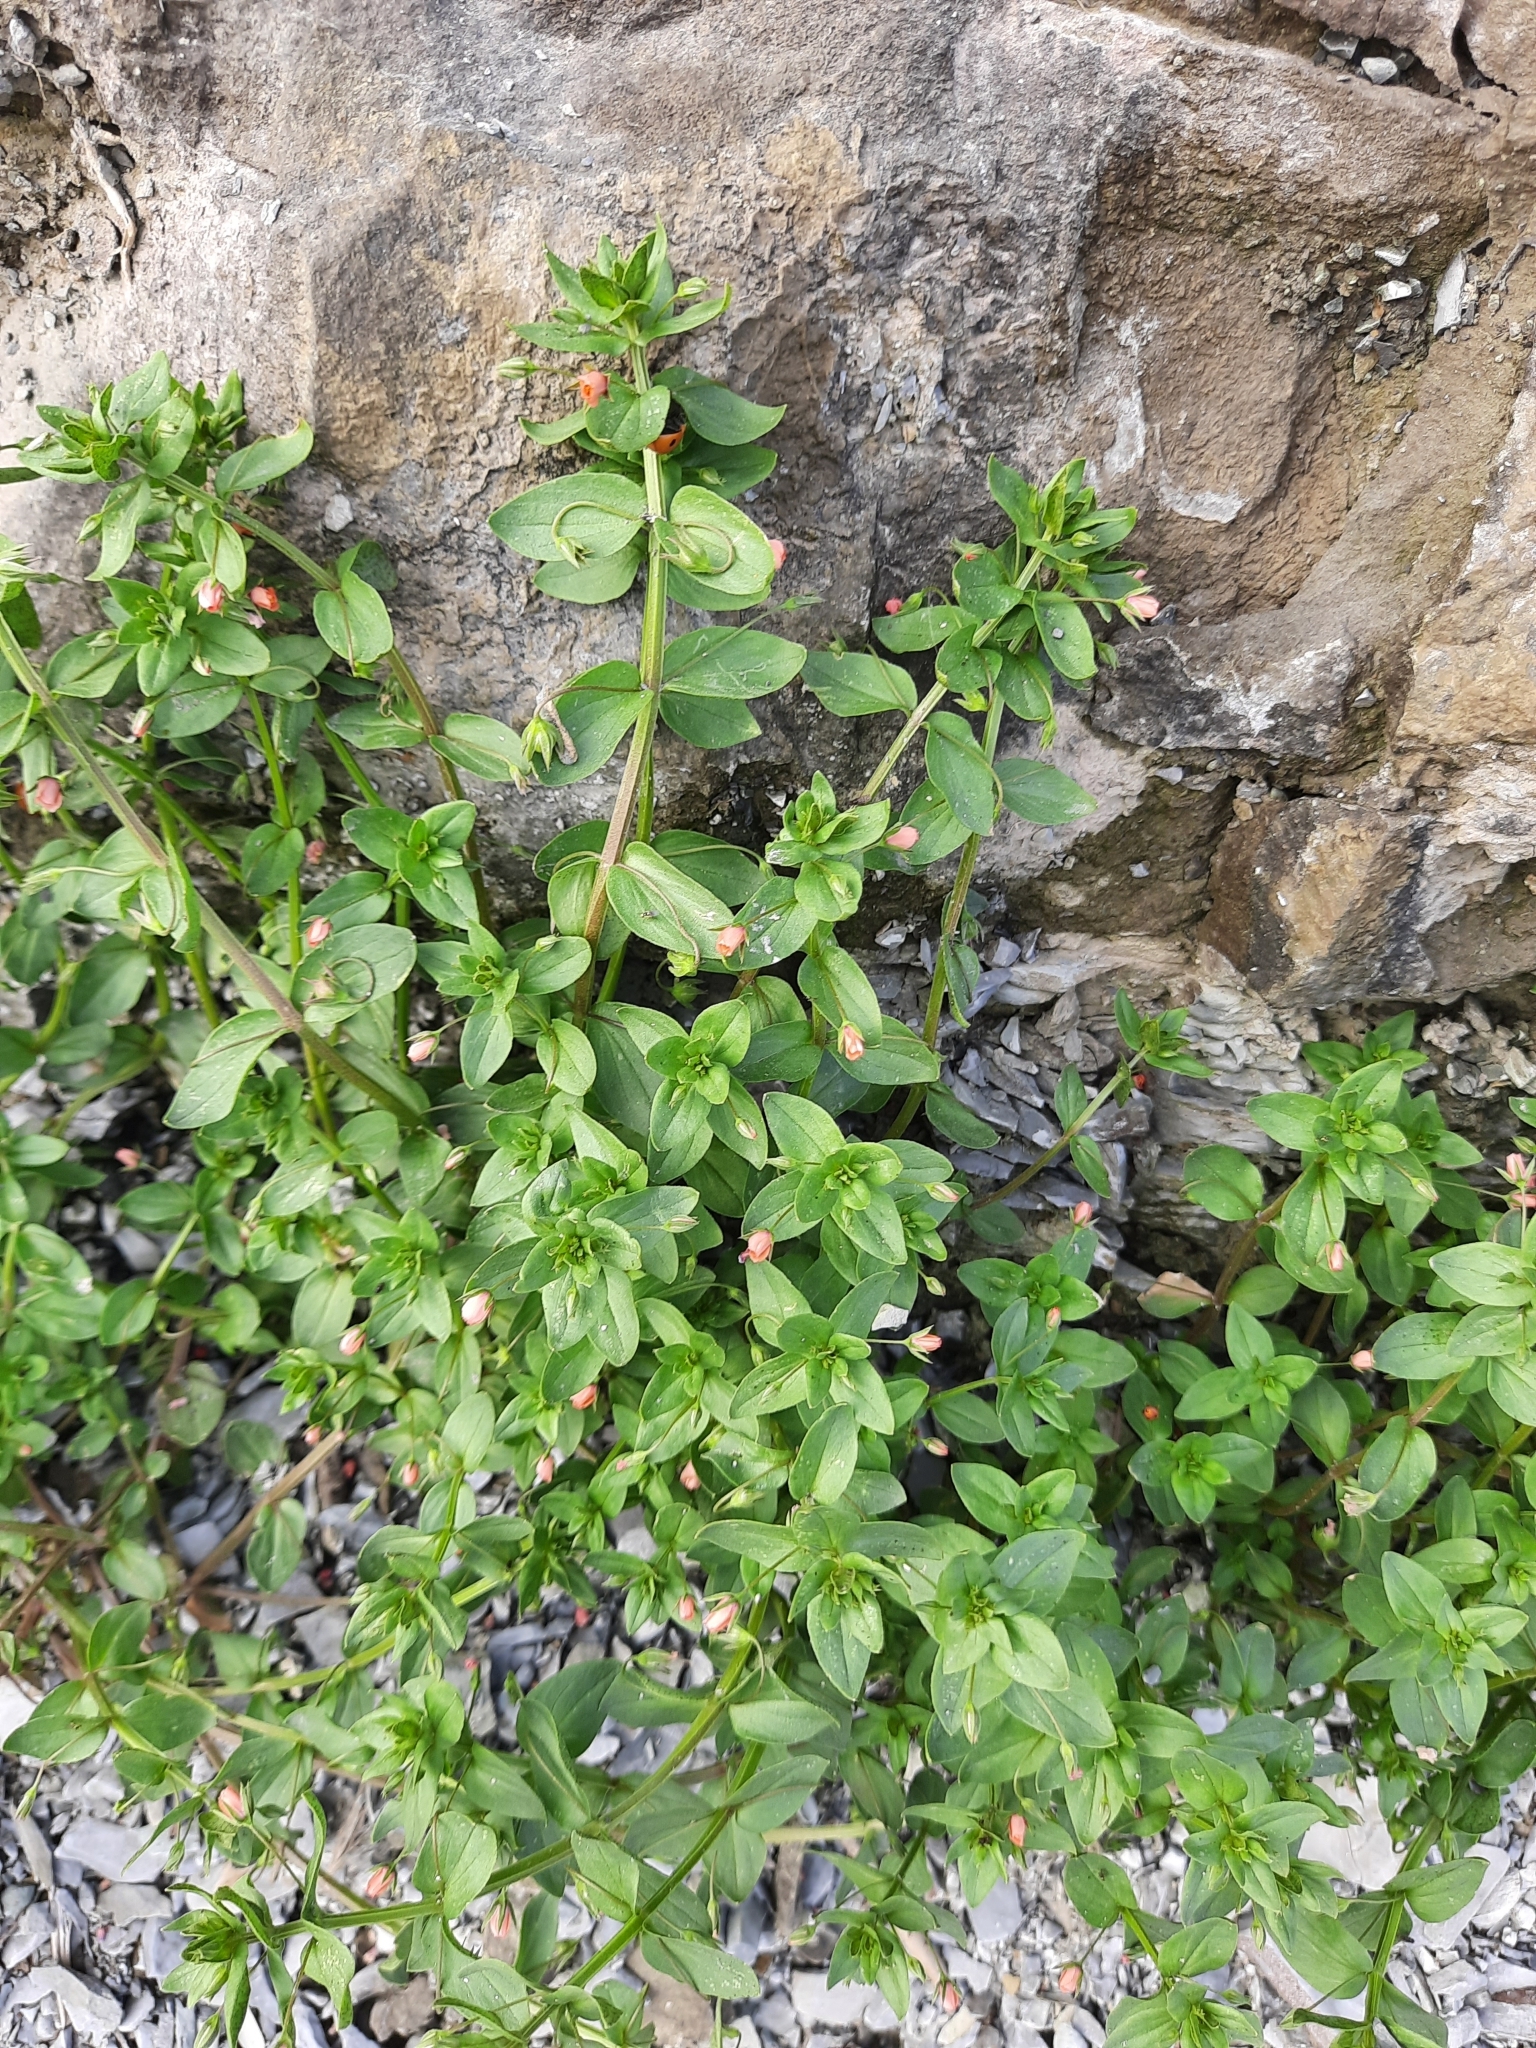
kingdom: Plantae
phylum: Tracheophyta
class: Magnoliopsida
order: Ericales
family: Primulaceae
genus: Lysimachia
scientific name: Lysimachia arvensis
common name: Scarlet pimpernel
